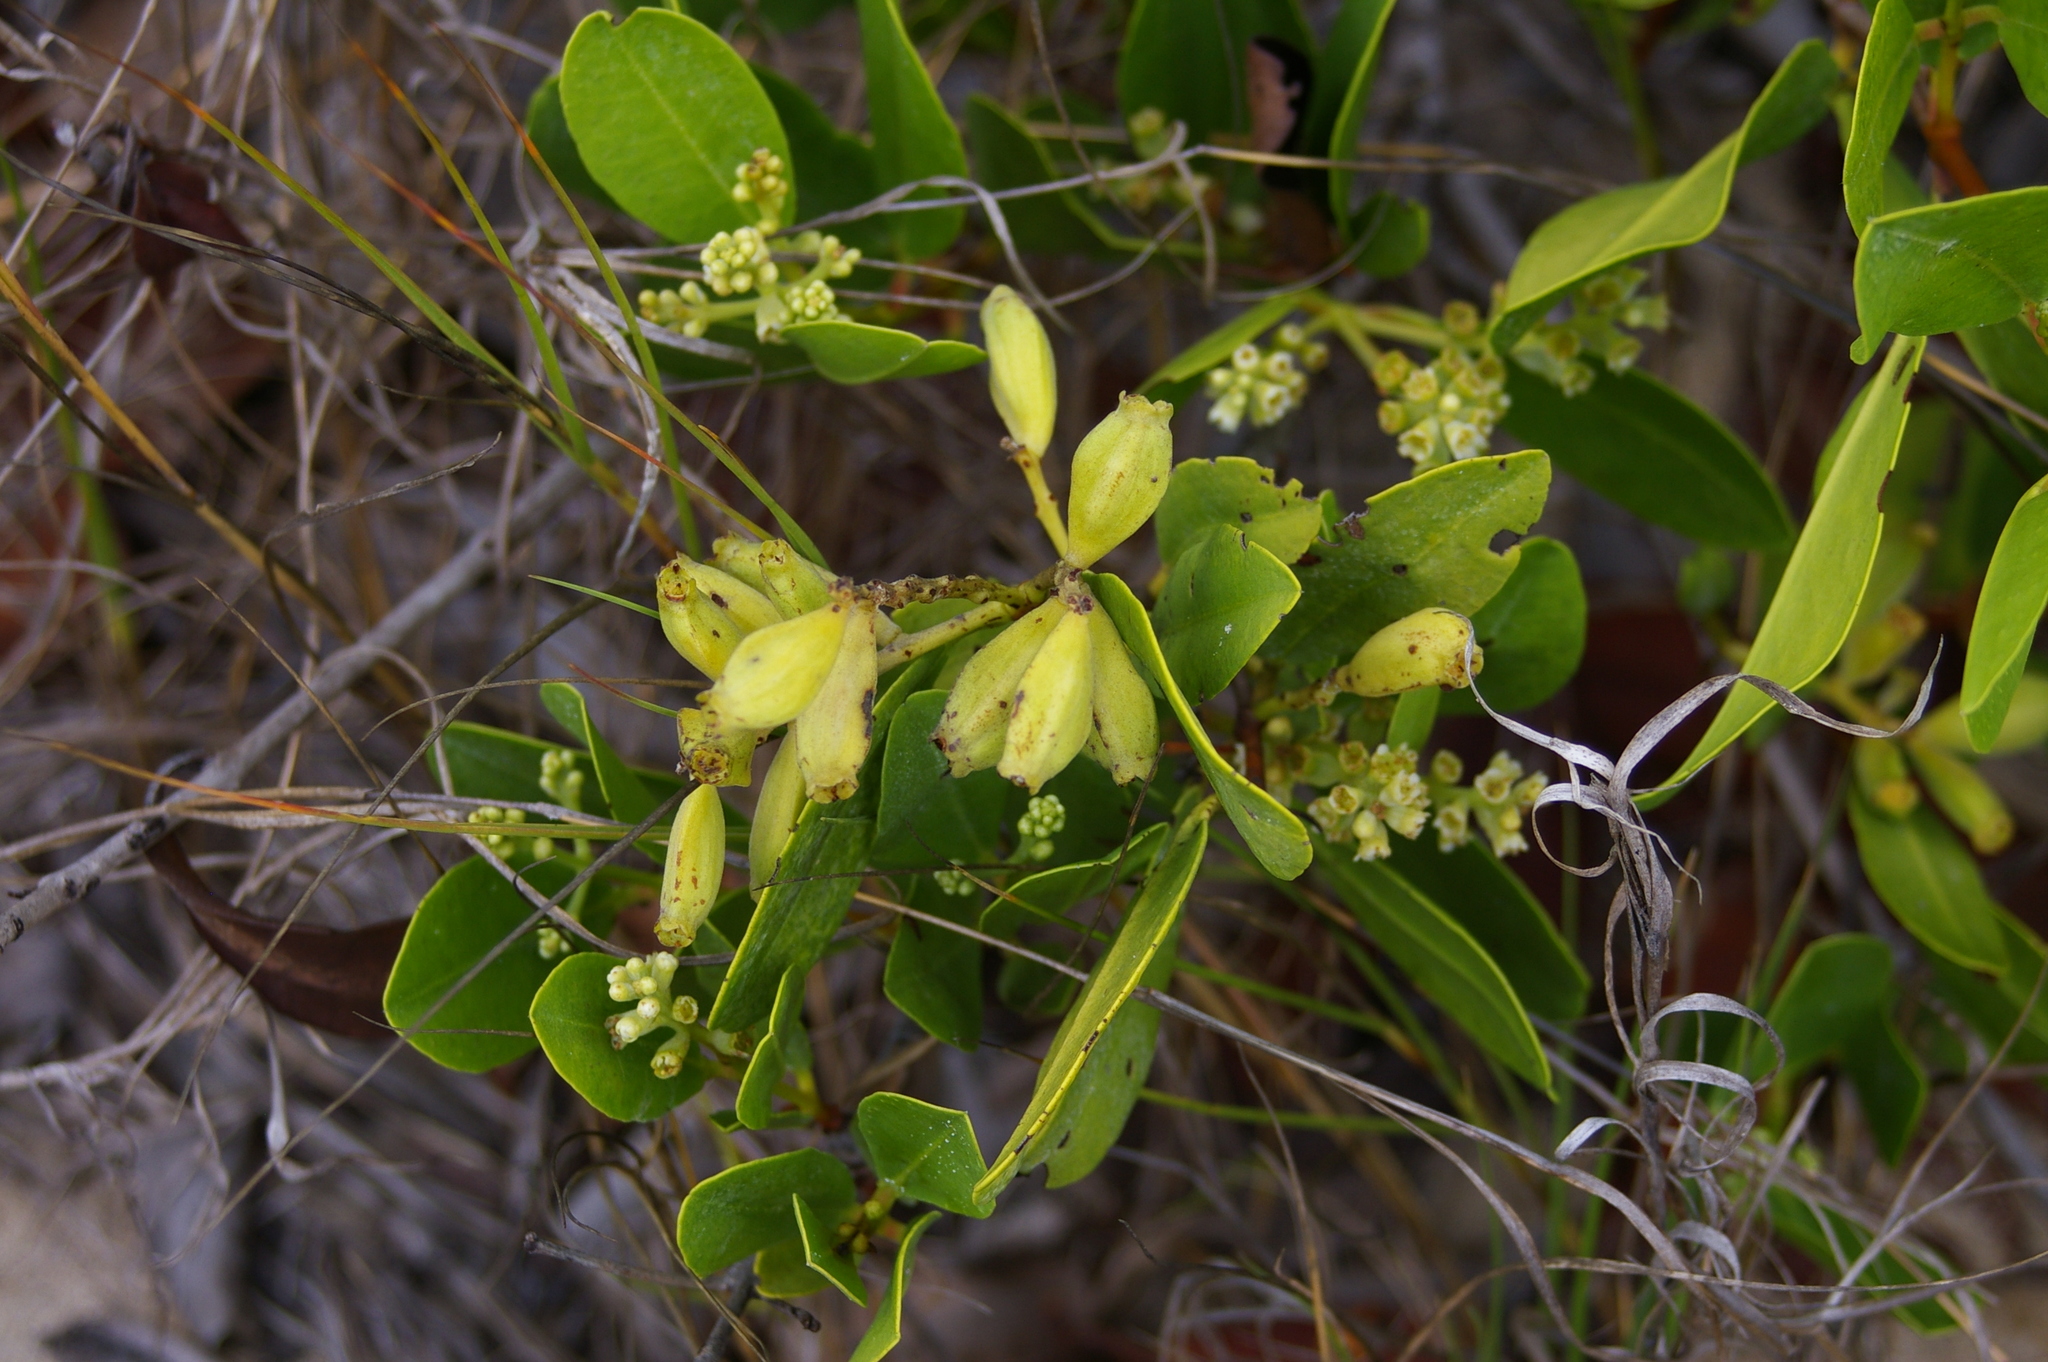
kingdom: Plantae
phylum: Tracheophyta
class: Magnoliopsida
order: Myrtales
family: Combretaceae
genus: Laguncularia
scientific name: Laguncularia racemosa
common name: White mangrove
